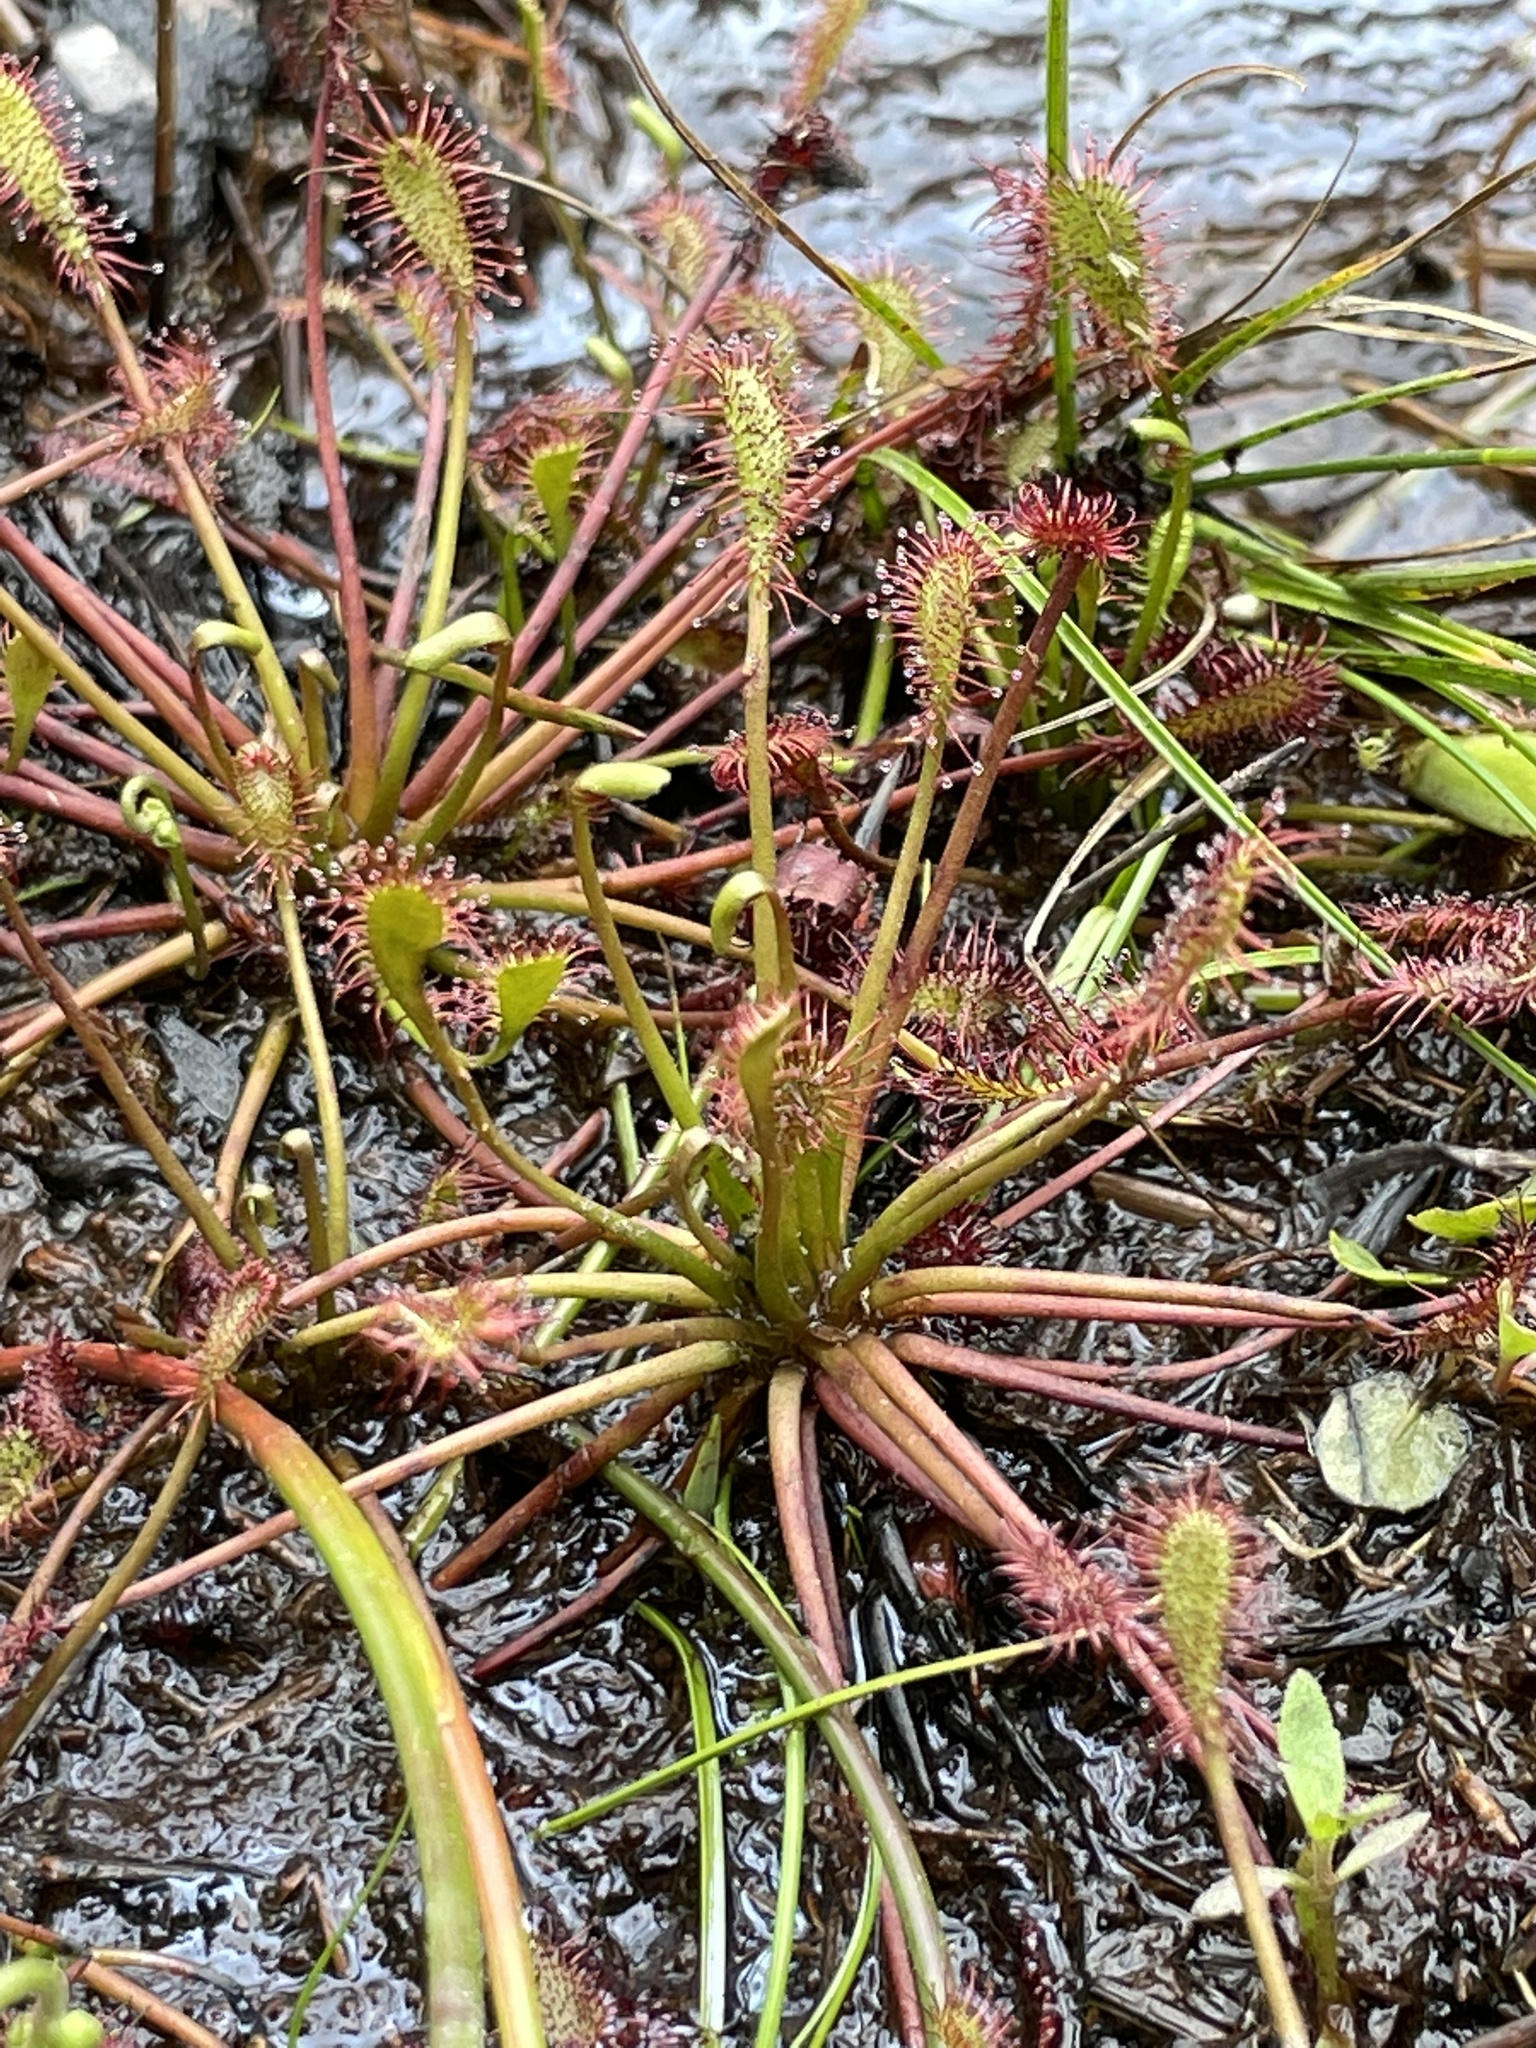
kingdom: Plantae
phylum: Tracheophyta
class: Magnoliopsida
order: Caryophyllales
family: Droseraceae
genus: Drosera
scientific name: Drosera intermedia
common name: Oblong-leaved sundew
